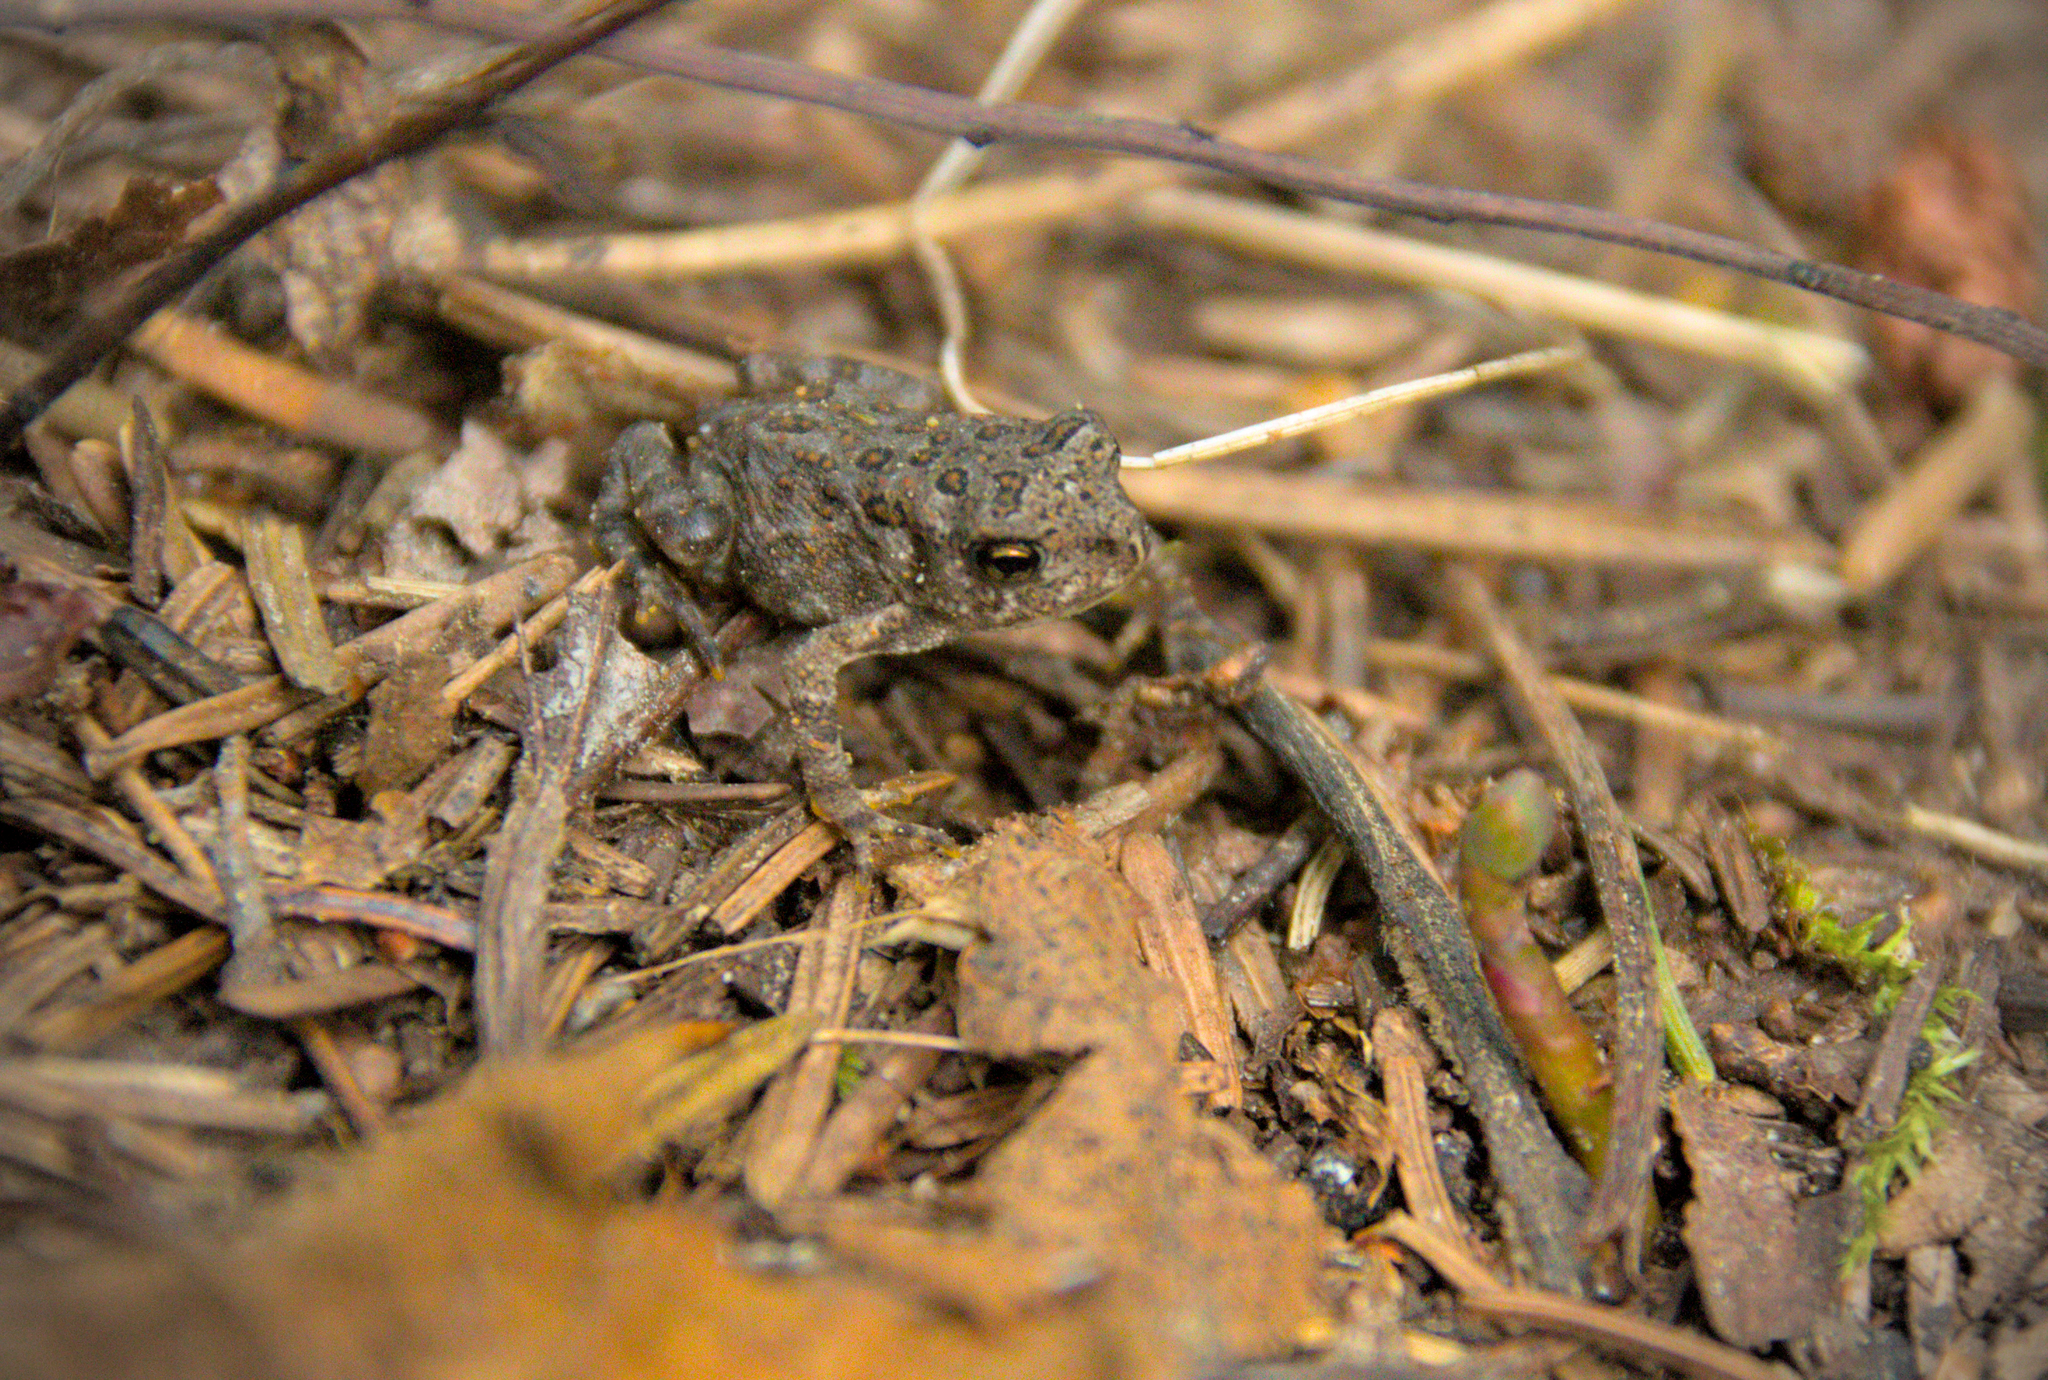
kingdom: Animalia
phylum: Chordata
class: Amphibia
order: Anura
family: Bufonidae
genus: Anaxyrus
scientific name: Anaxyrus americanus
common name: American toad
